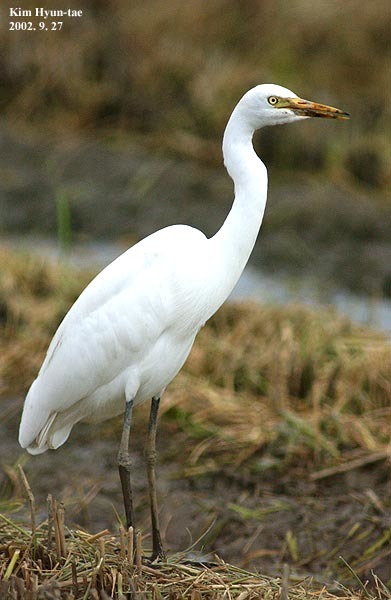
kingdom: Animalia
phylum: Chordata
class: Aves
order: Pelecaniformes
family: Ardeidae
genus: Egretta
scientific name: Egretta intermedia
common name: Intermediate egret
